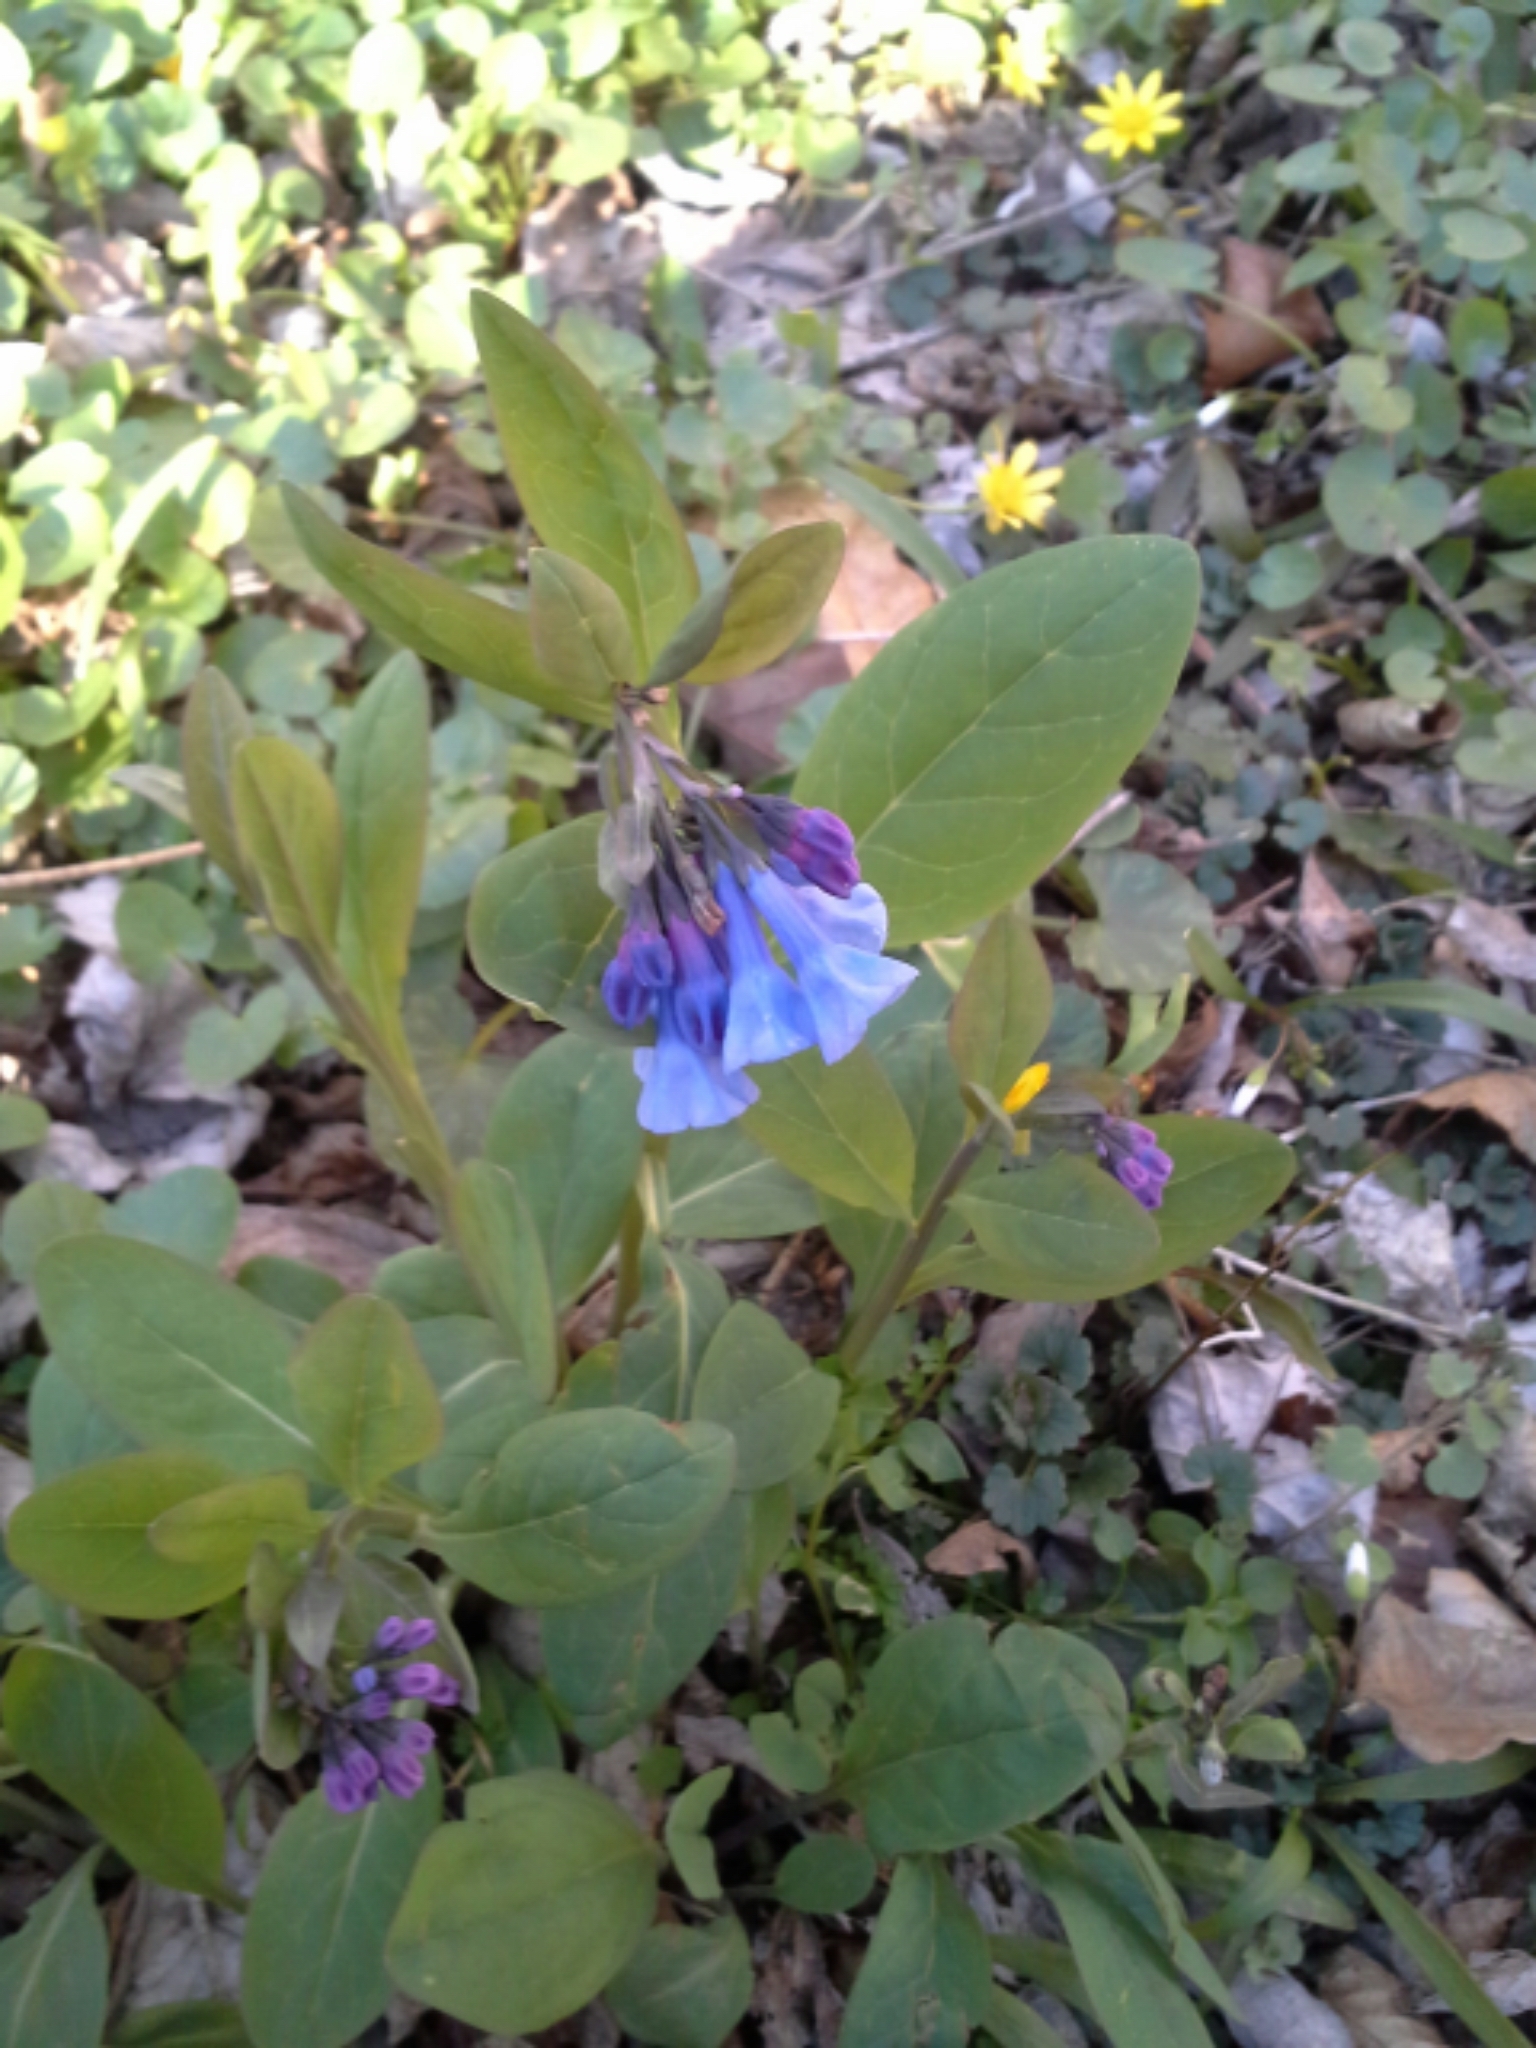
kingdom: Plantae
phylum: Tracheophyta
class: Magnoliopsida
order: Boraginales
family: Boraginaceae
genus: Mertensia
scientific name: Mertensia virginica
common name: Virginia bluebells
